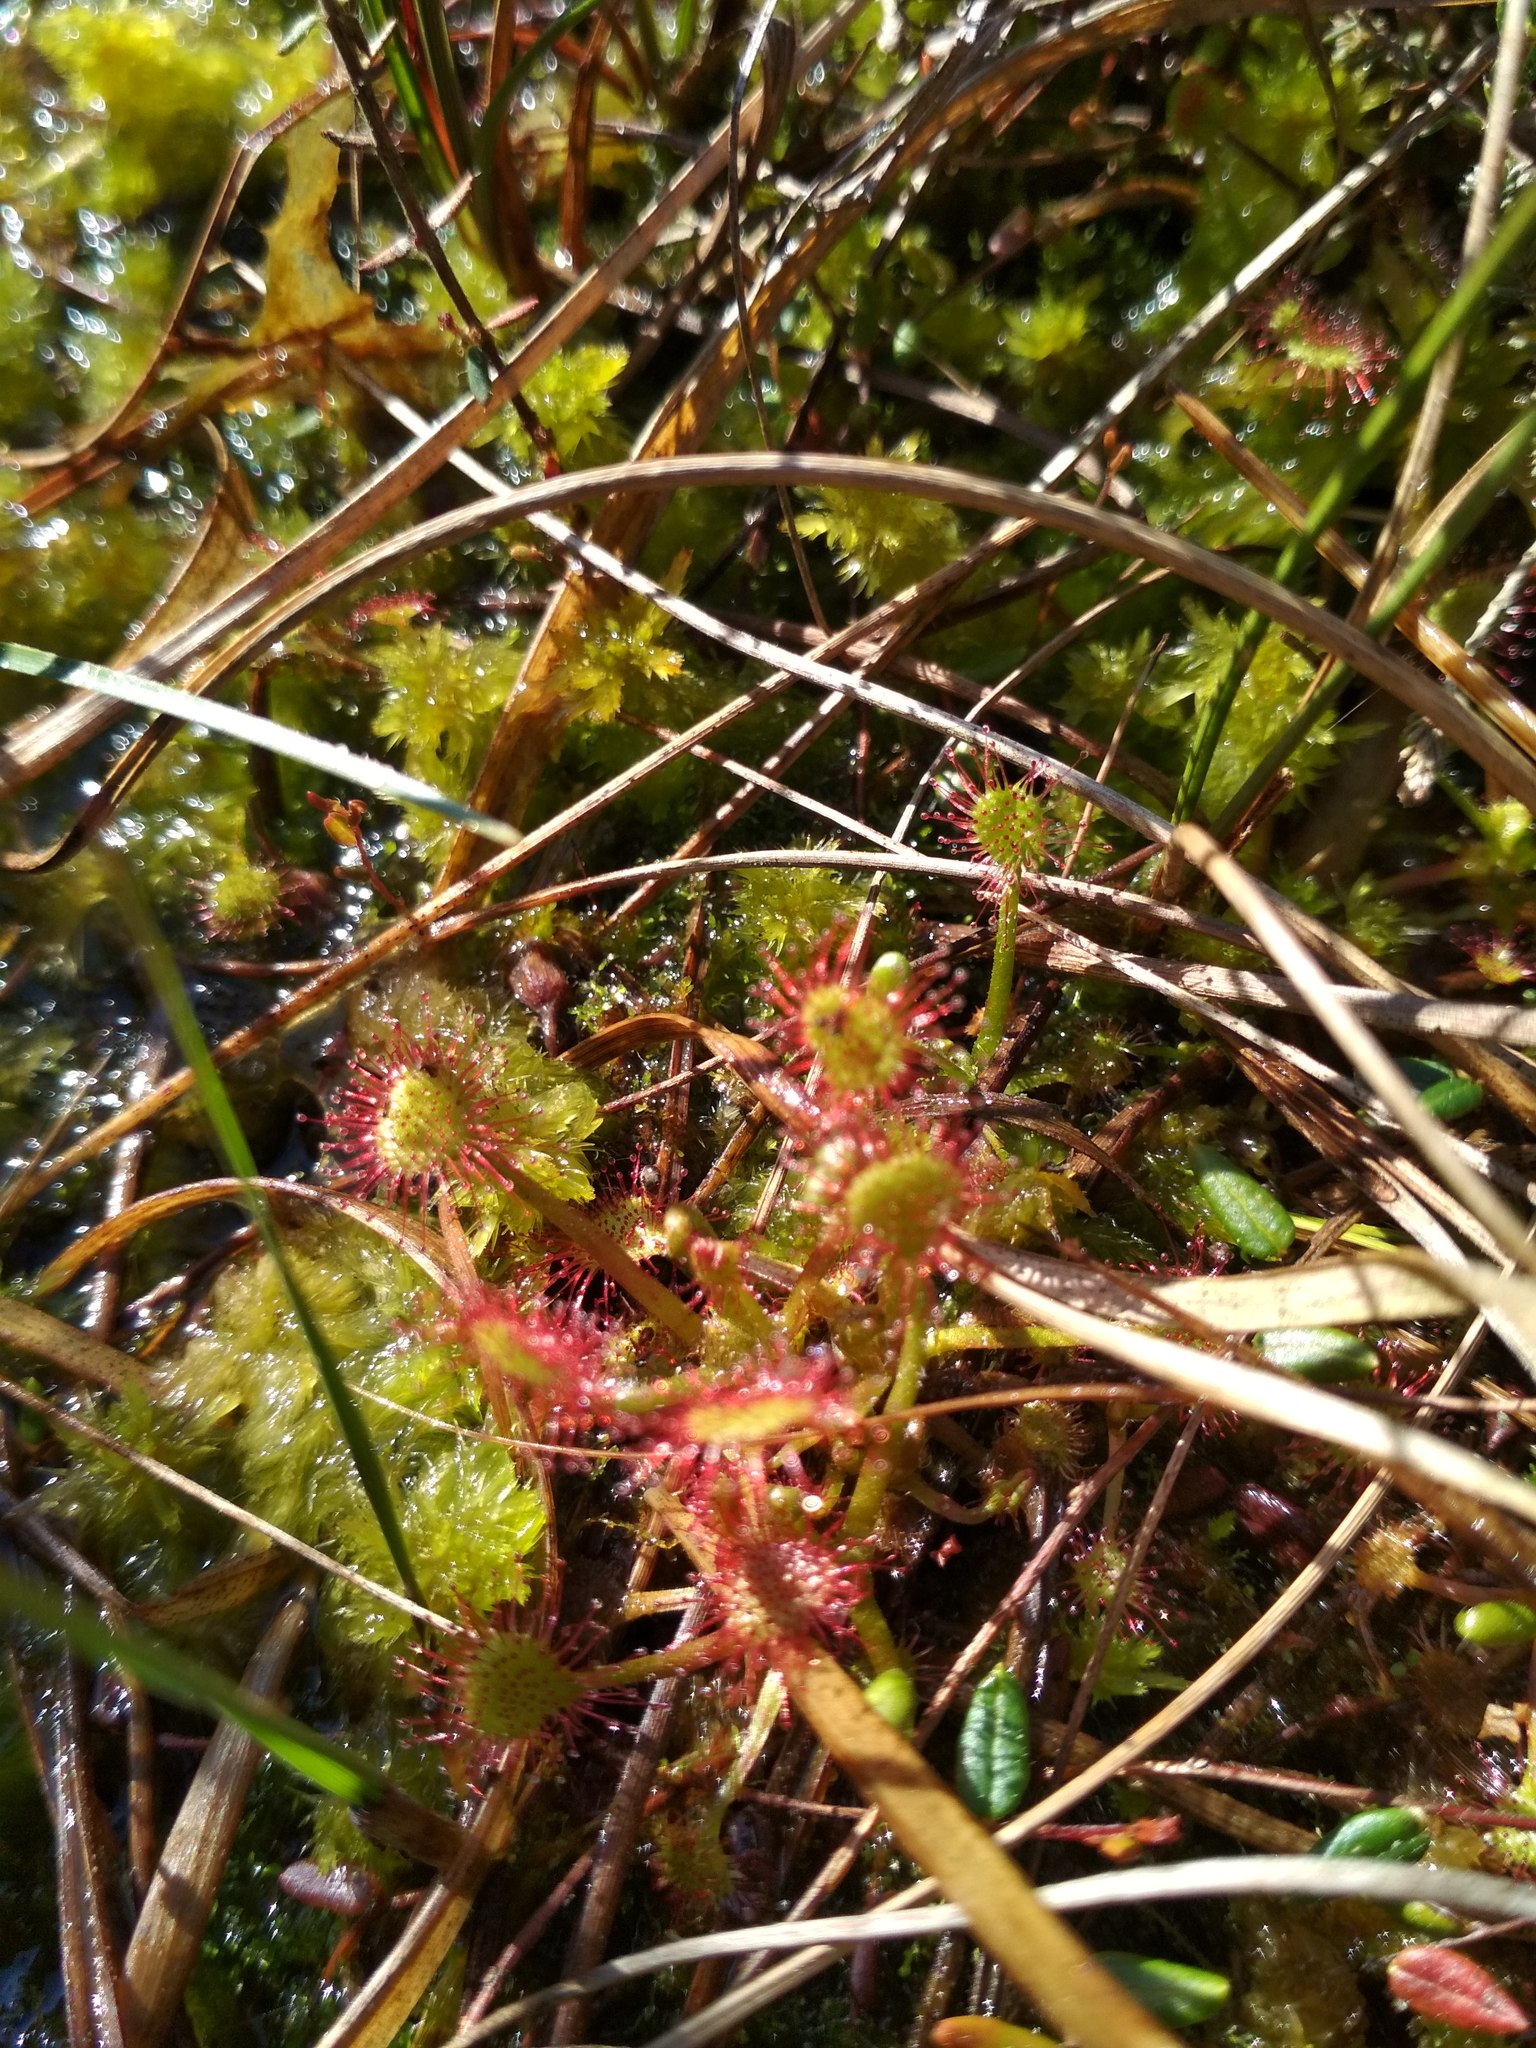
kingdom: Plantae
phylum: Tracheophyta
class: Magnoliopsida
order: Caryophyllales
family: Droseraceae
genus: Drosera
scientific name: Drosera rotundifolia
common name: Round-leaved sundew
